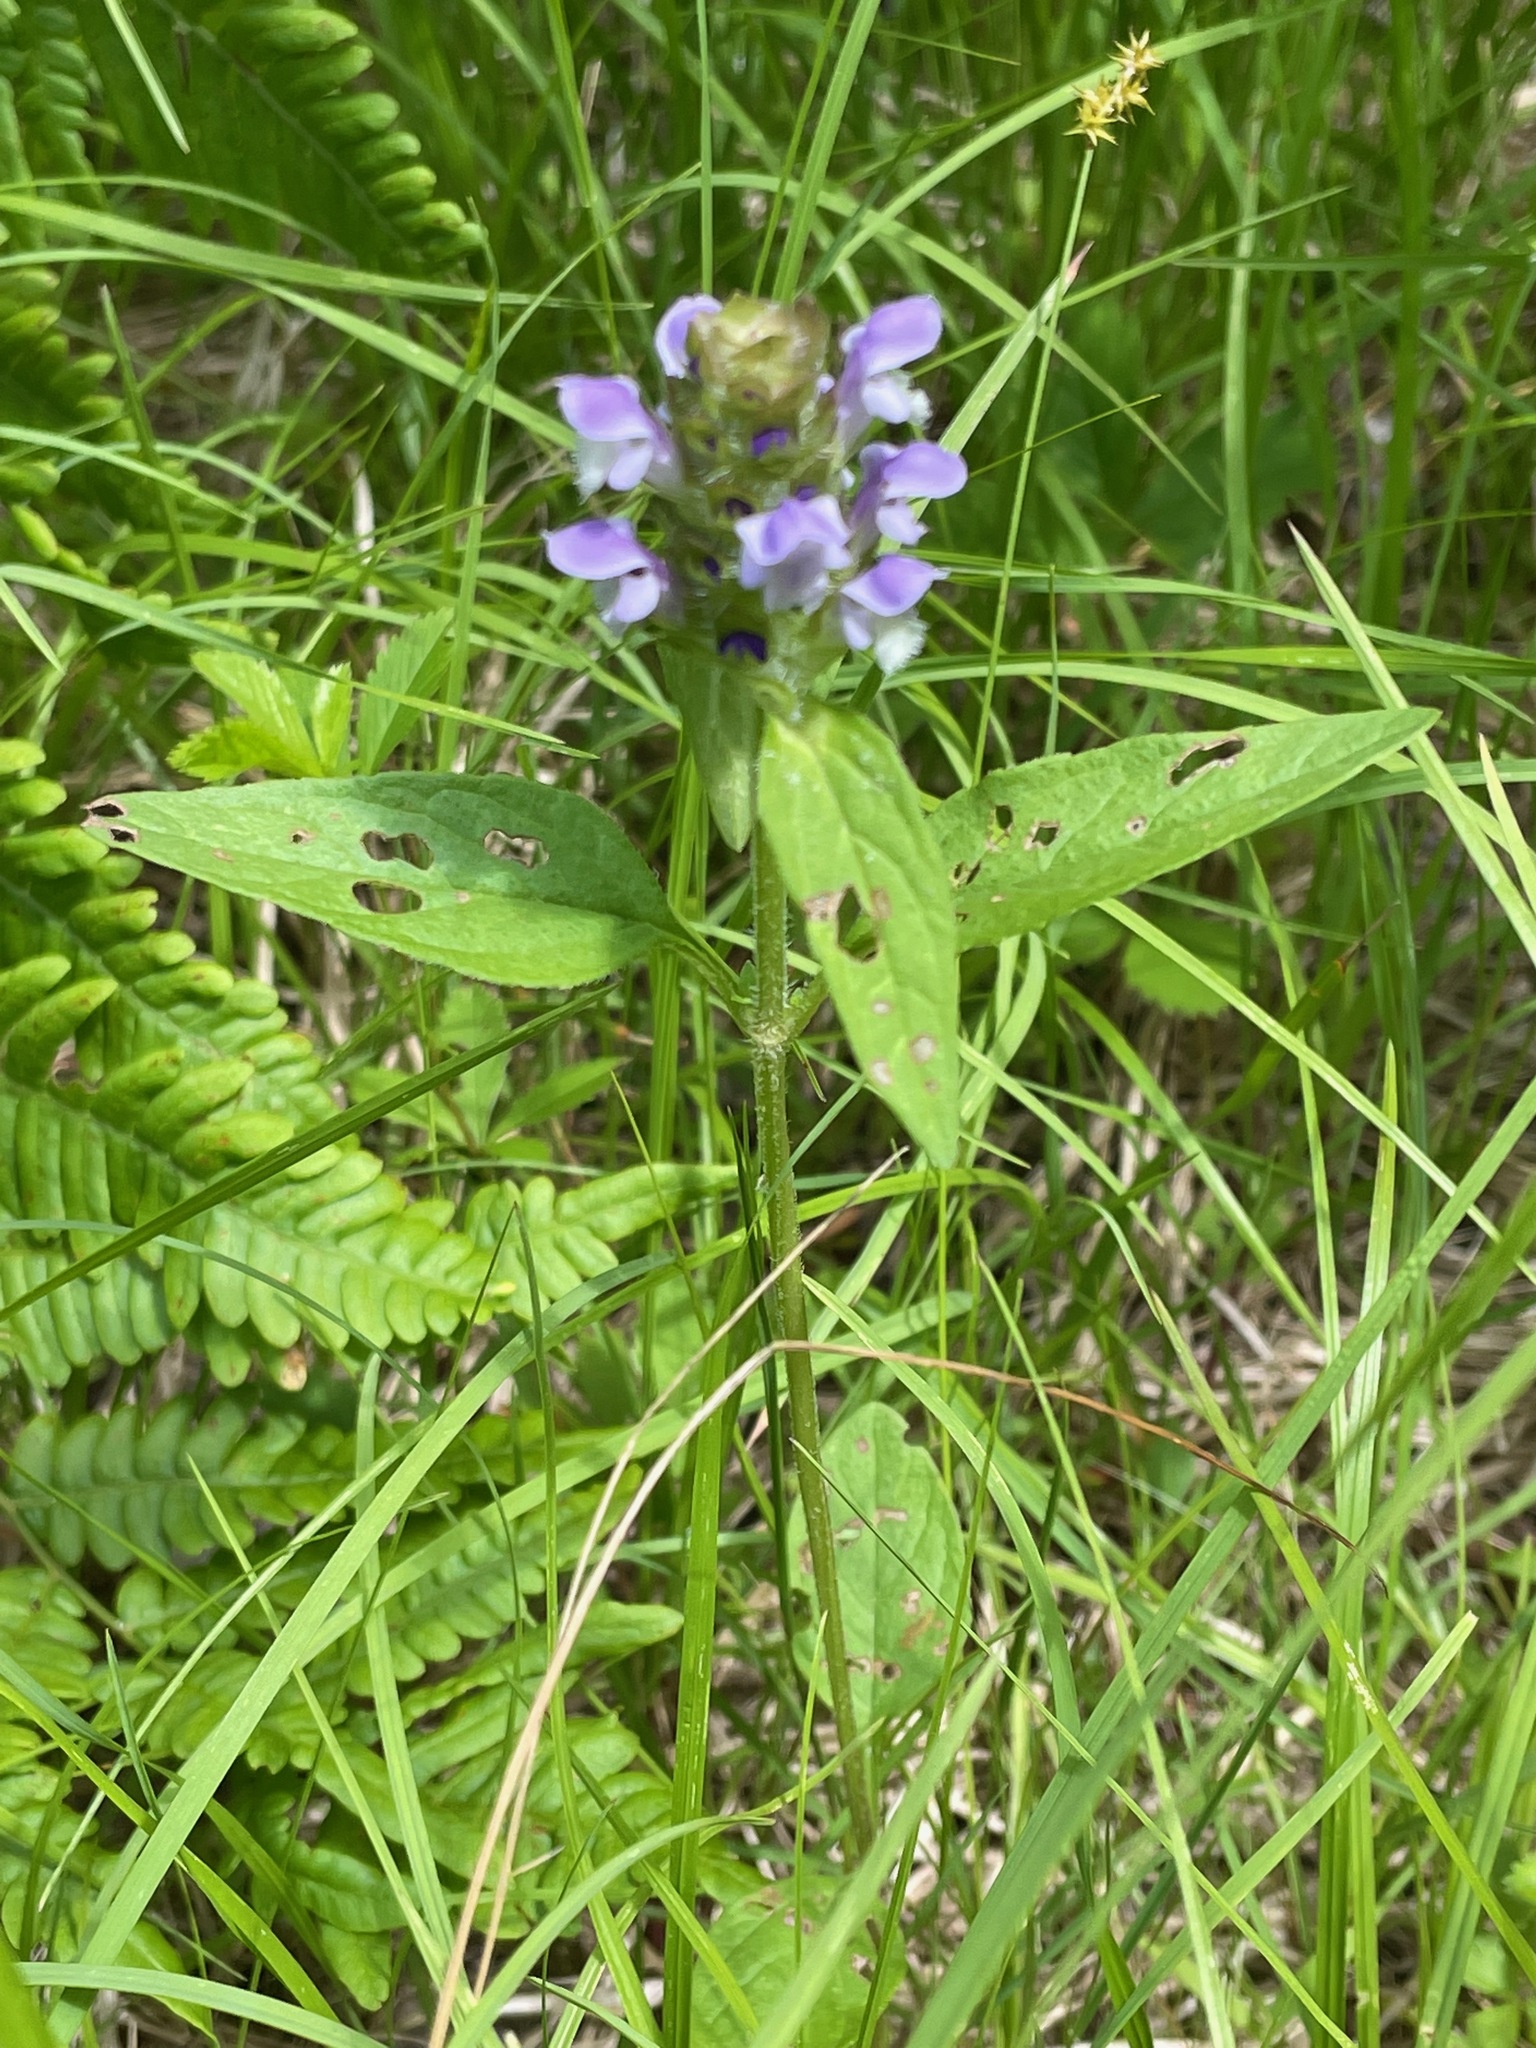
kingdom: Plantae
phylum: Tracheophyta
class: Magnoliopsida
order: Lamiales
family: Lamiaceae
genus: Prunella
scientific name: Prunella vulgaris
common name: Heal-all
